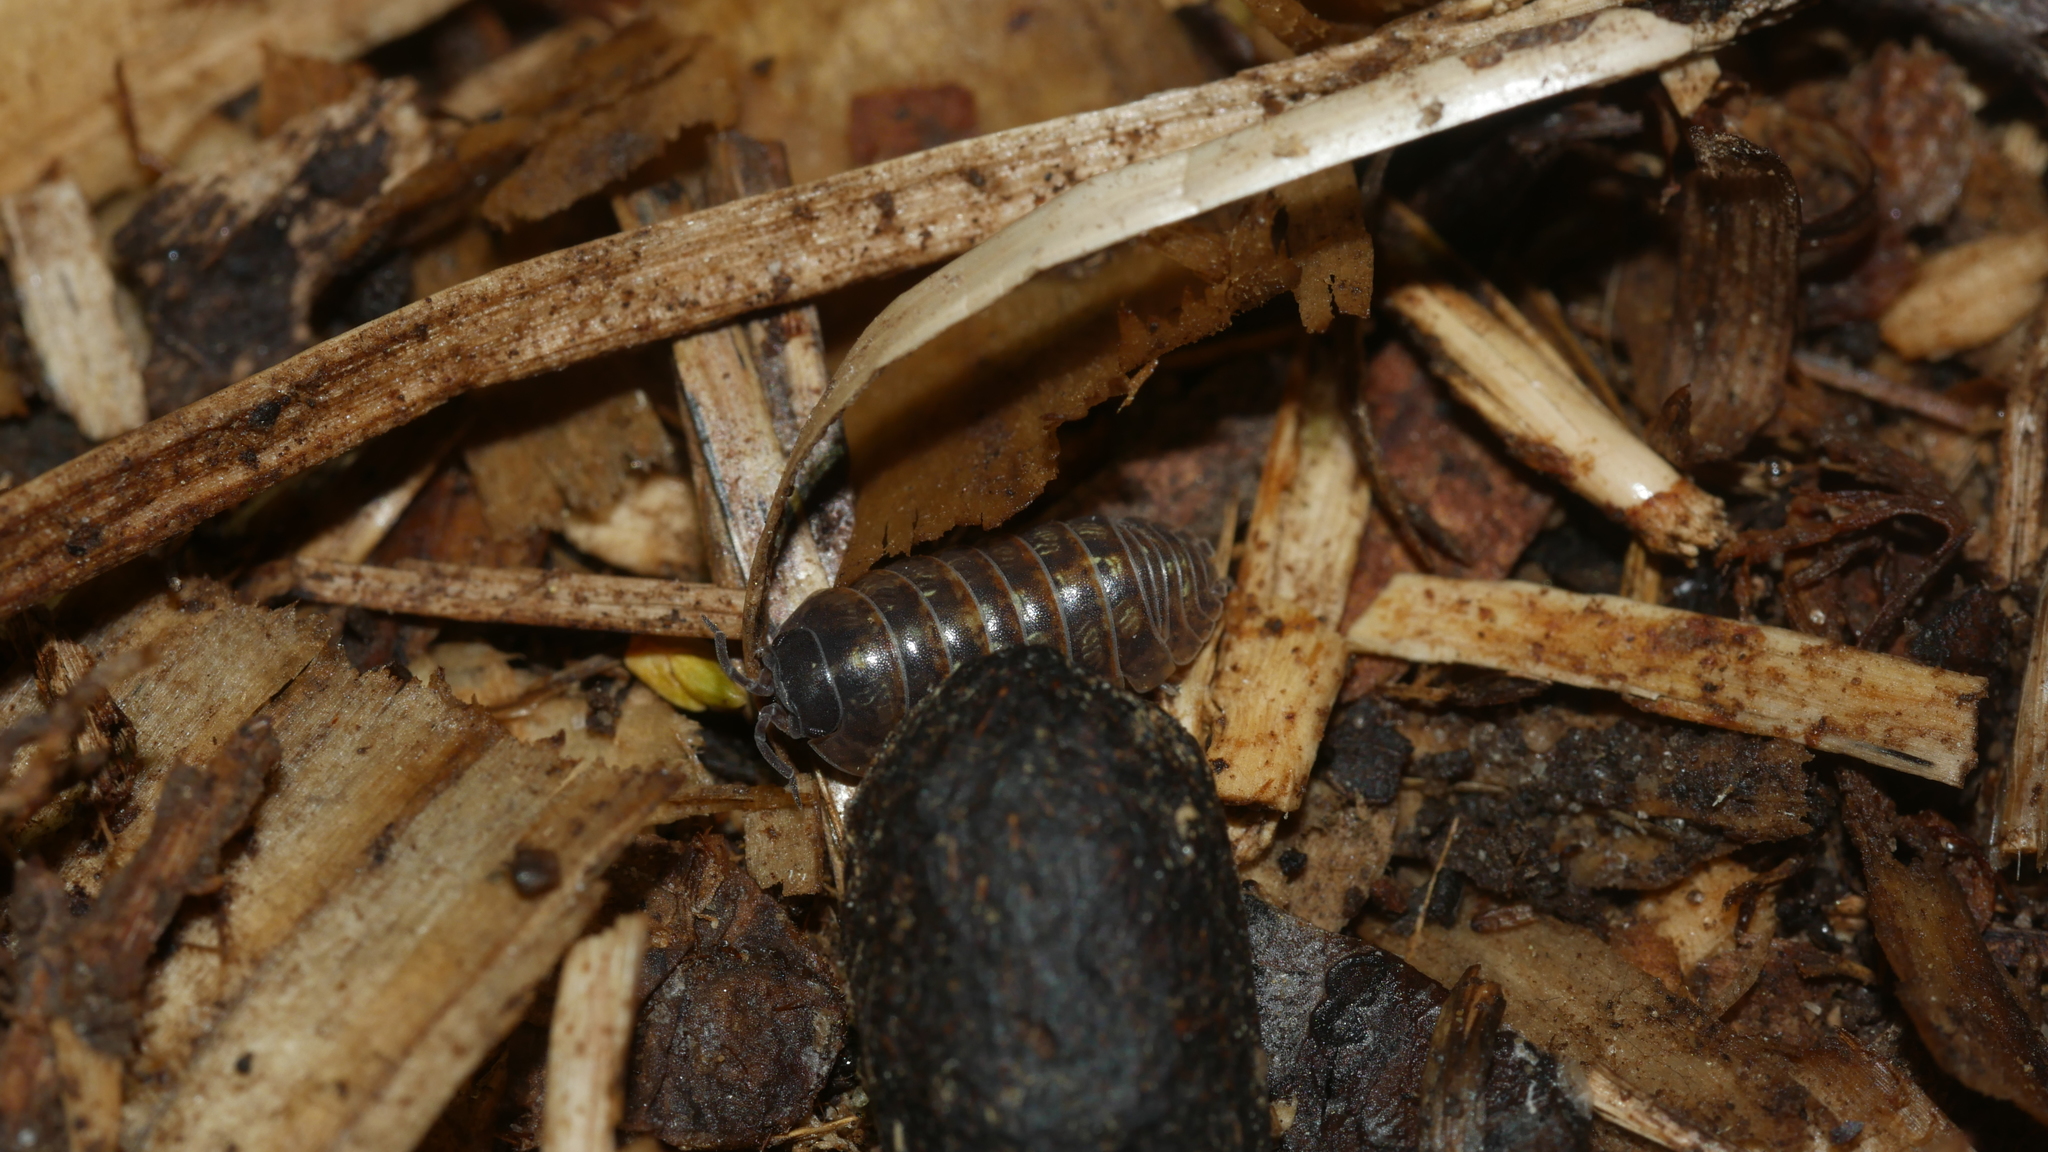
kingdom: Animalia
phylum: Arthropoda
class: Malacostraca
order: Isopoda
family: Armadillidiidae
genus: Armadillidium
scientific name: Armadillidium vulgare
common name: Common pill woodlouse
